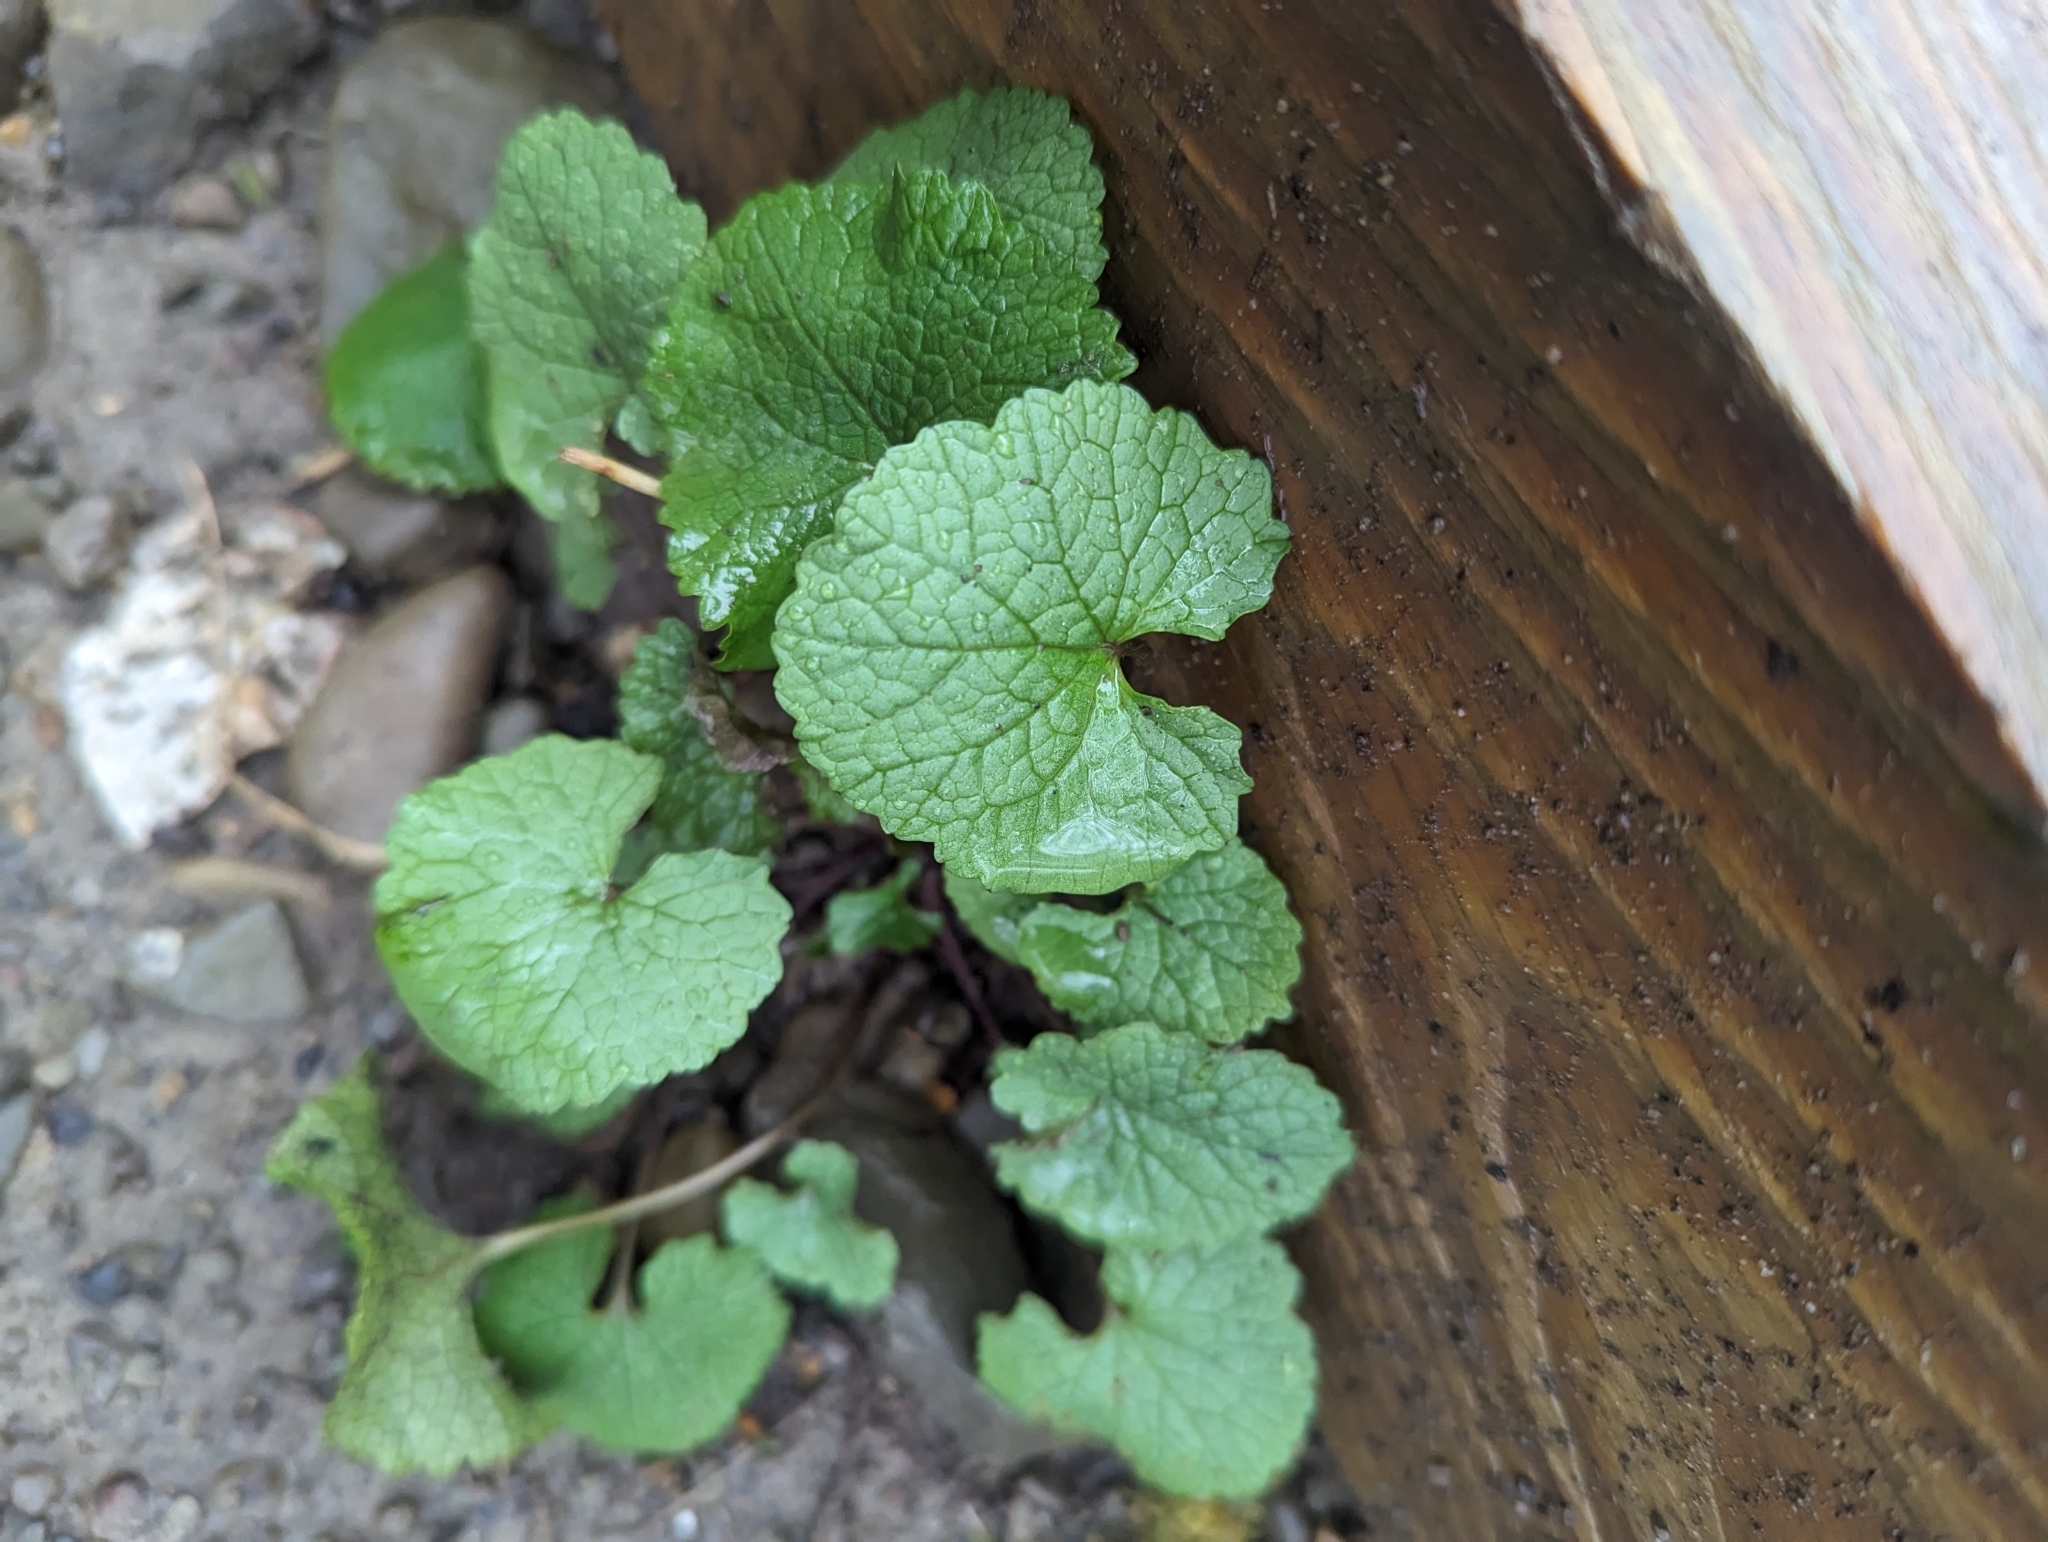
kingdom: Plantae
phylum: Tracheophyta
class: Magnoliopsida
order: Brassicales
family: Brassicaceae
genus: Alliaria
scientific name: Alliaria petiolata
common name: Garlic mustard
